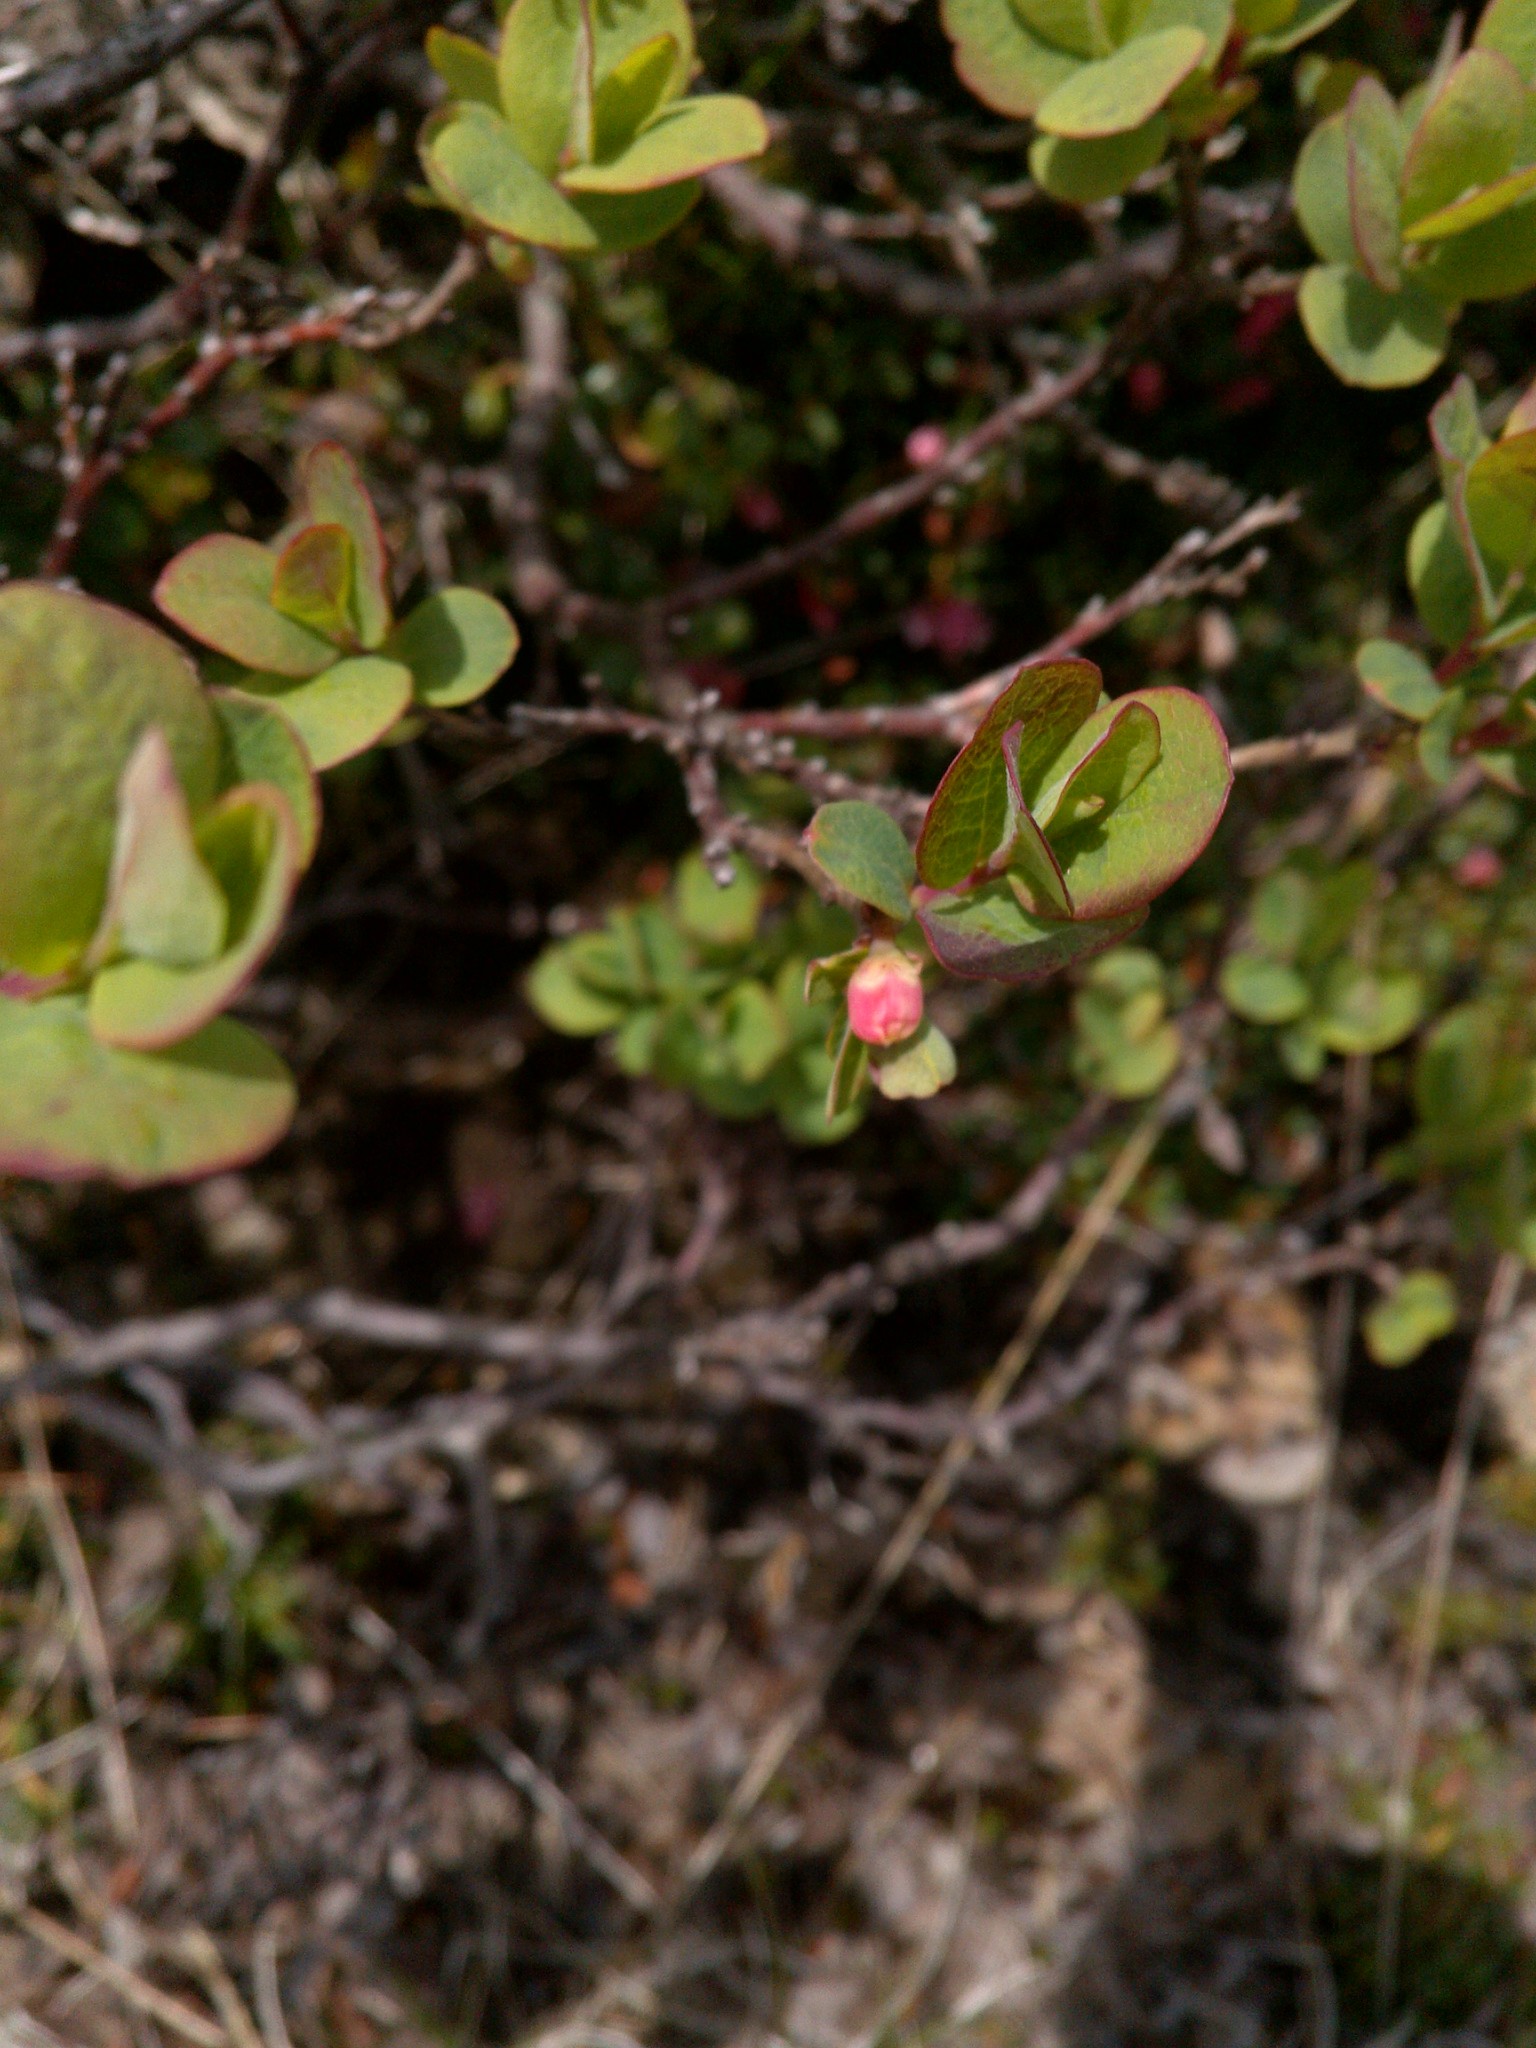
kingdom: Plantae
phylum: Tracheophyta
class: Magnoliopsida
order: Ericales
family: Ericaceae
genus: Vaccinium
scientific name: Vaccinium uliginosum
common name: Bog bilberry
